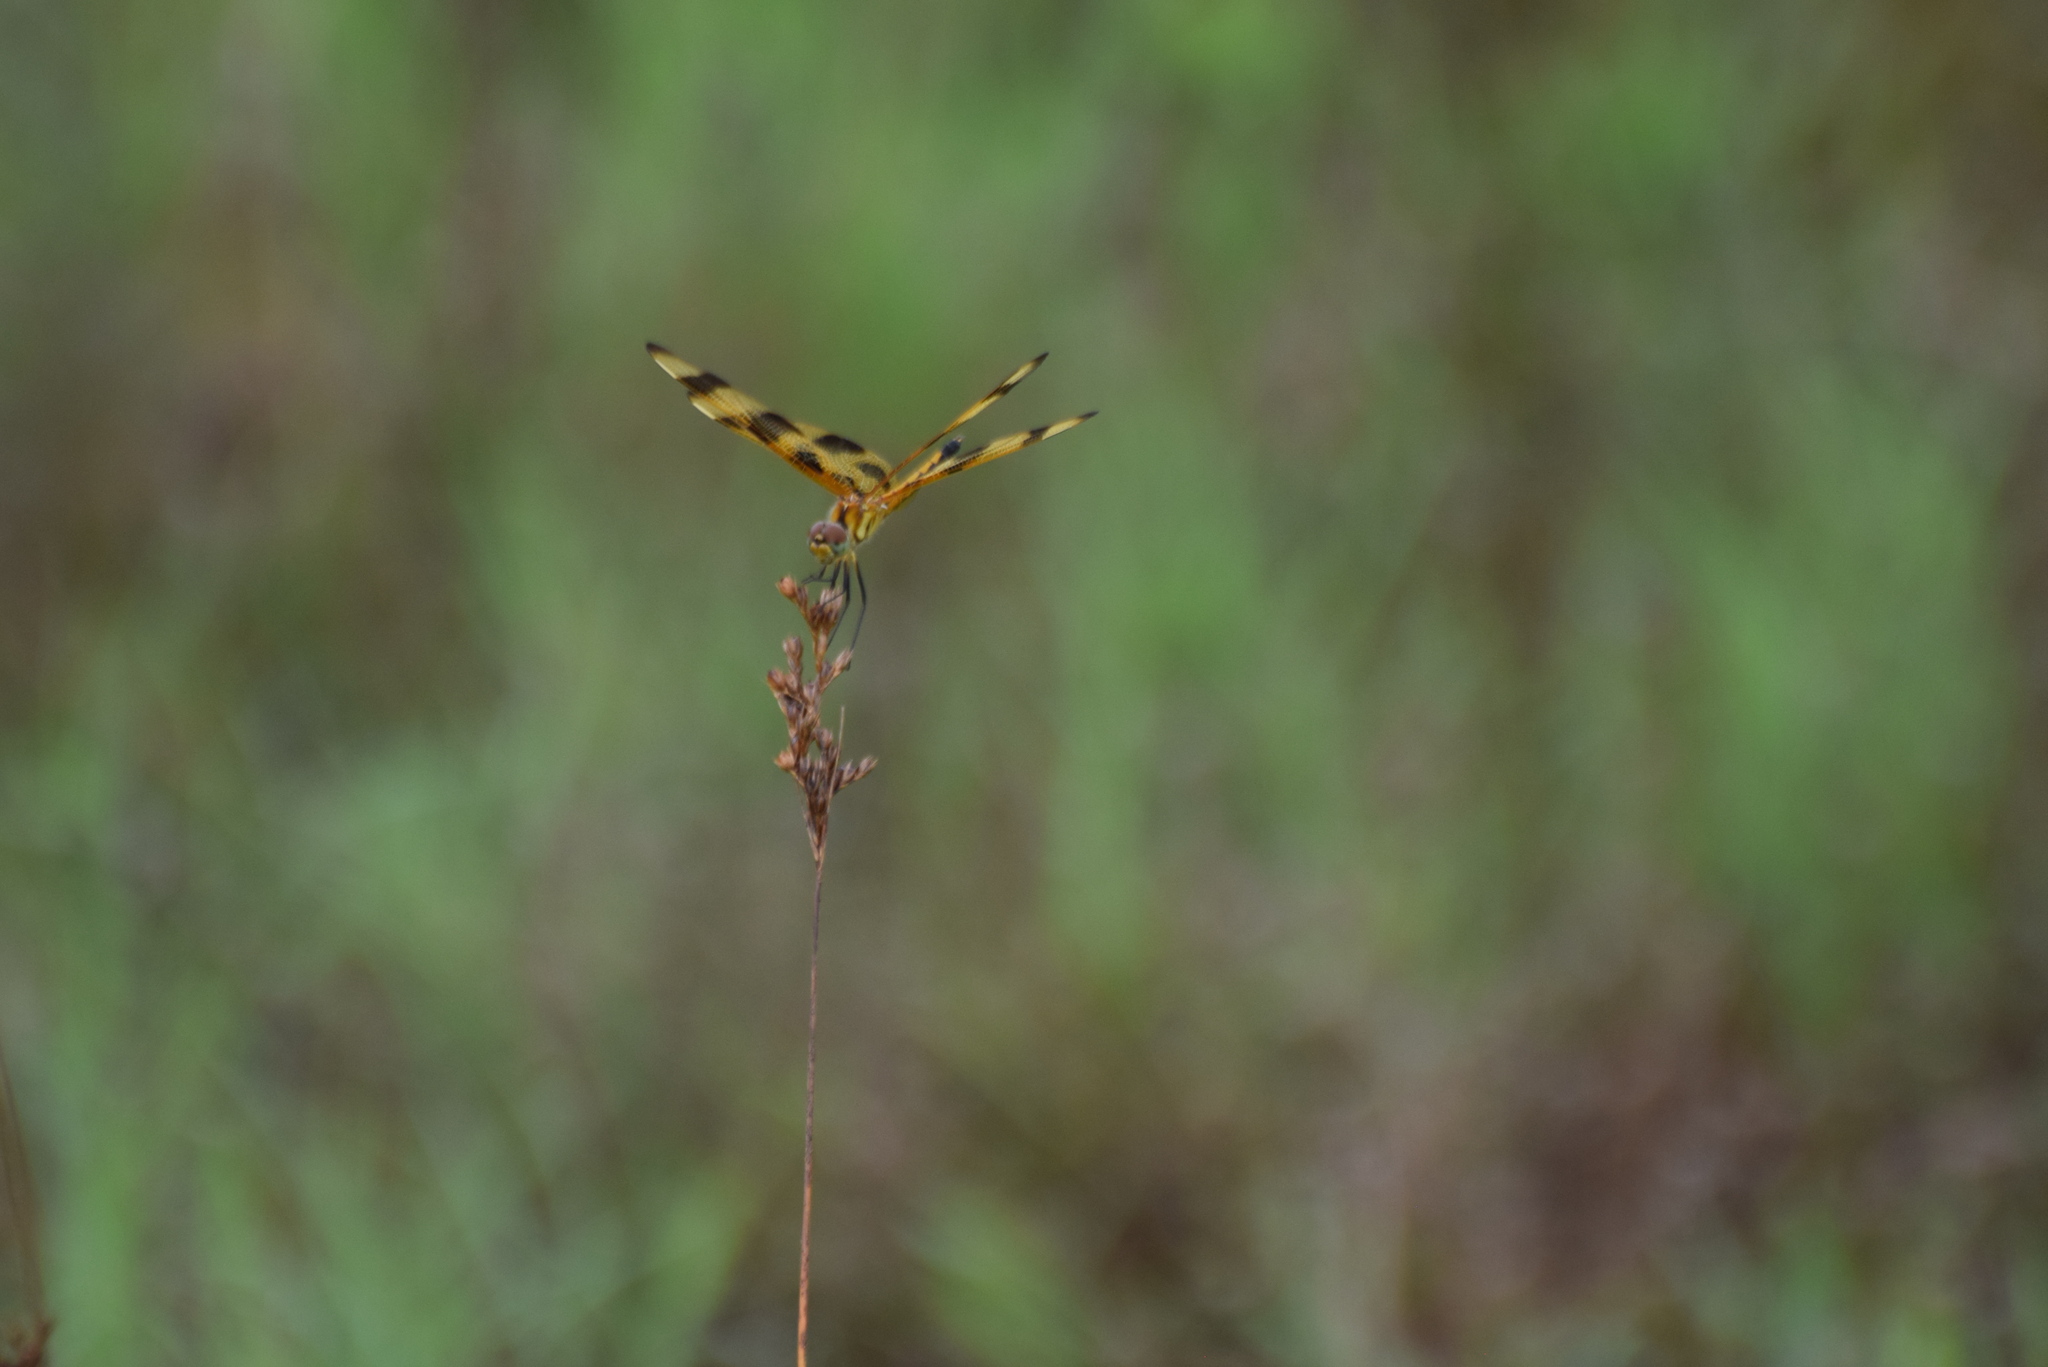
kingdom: Animalia
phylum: Arthropoda
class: Insecta
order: Odonata
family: Libellulidae
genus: Celithemis
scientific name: Celithemis eponina
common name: Halloween pennant
